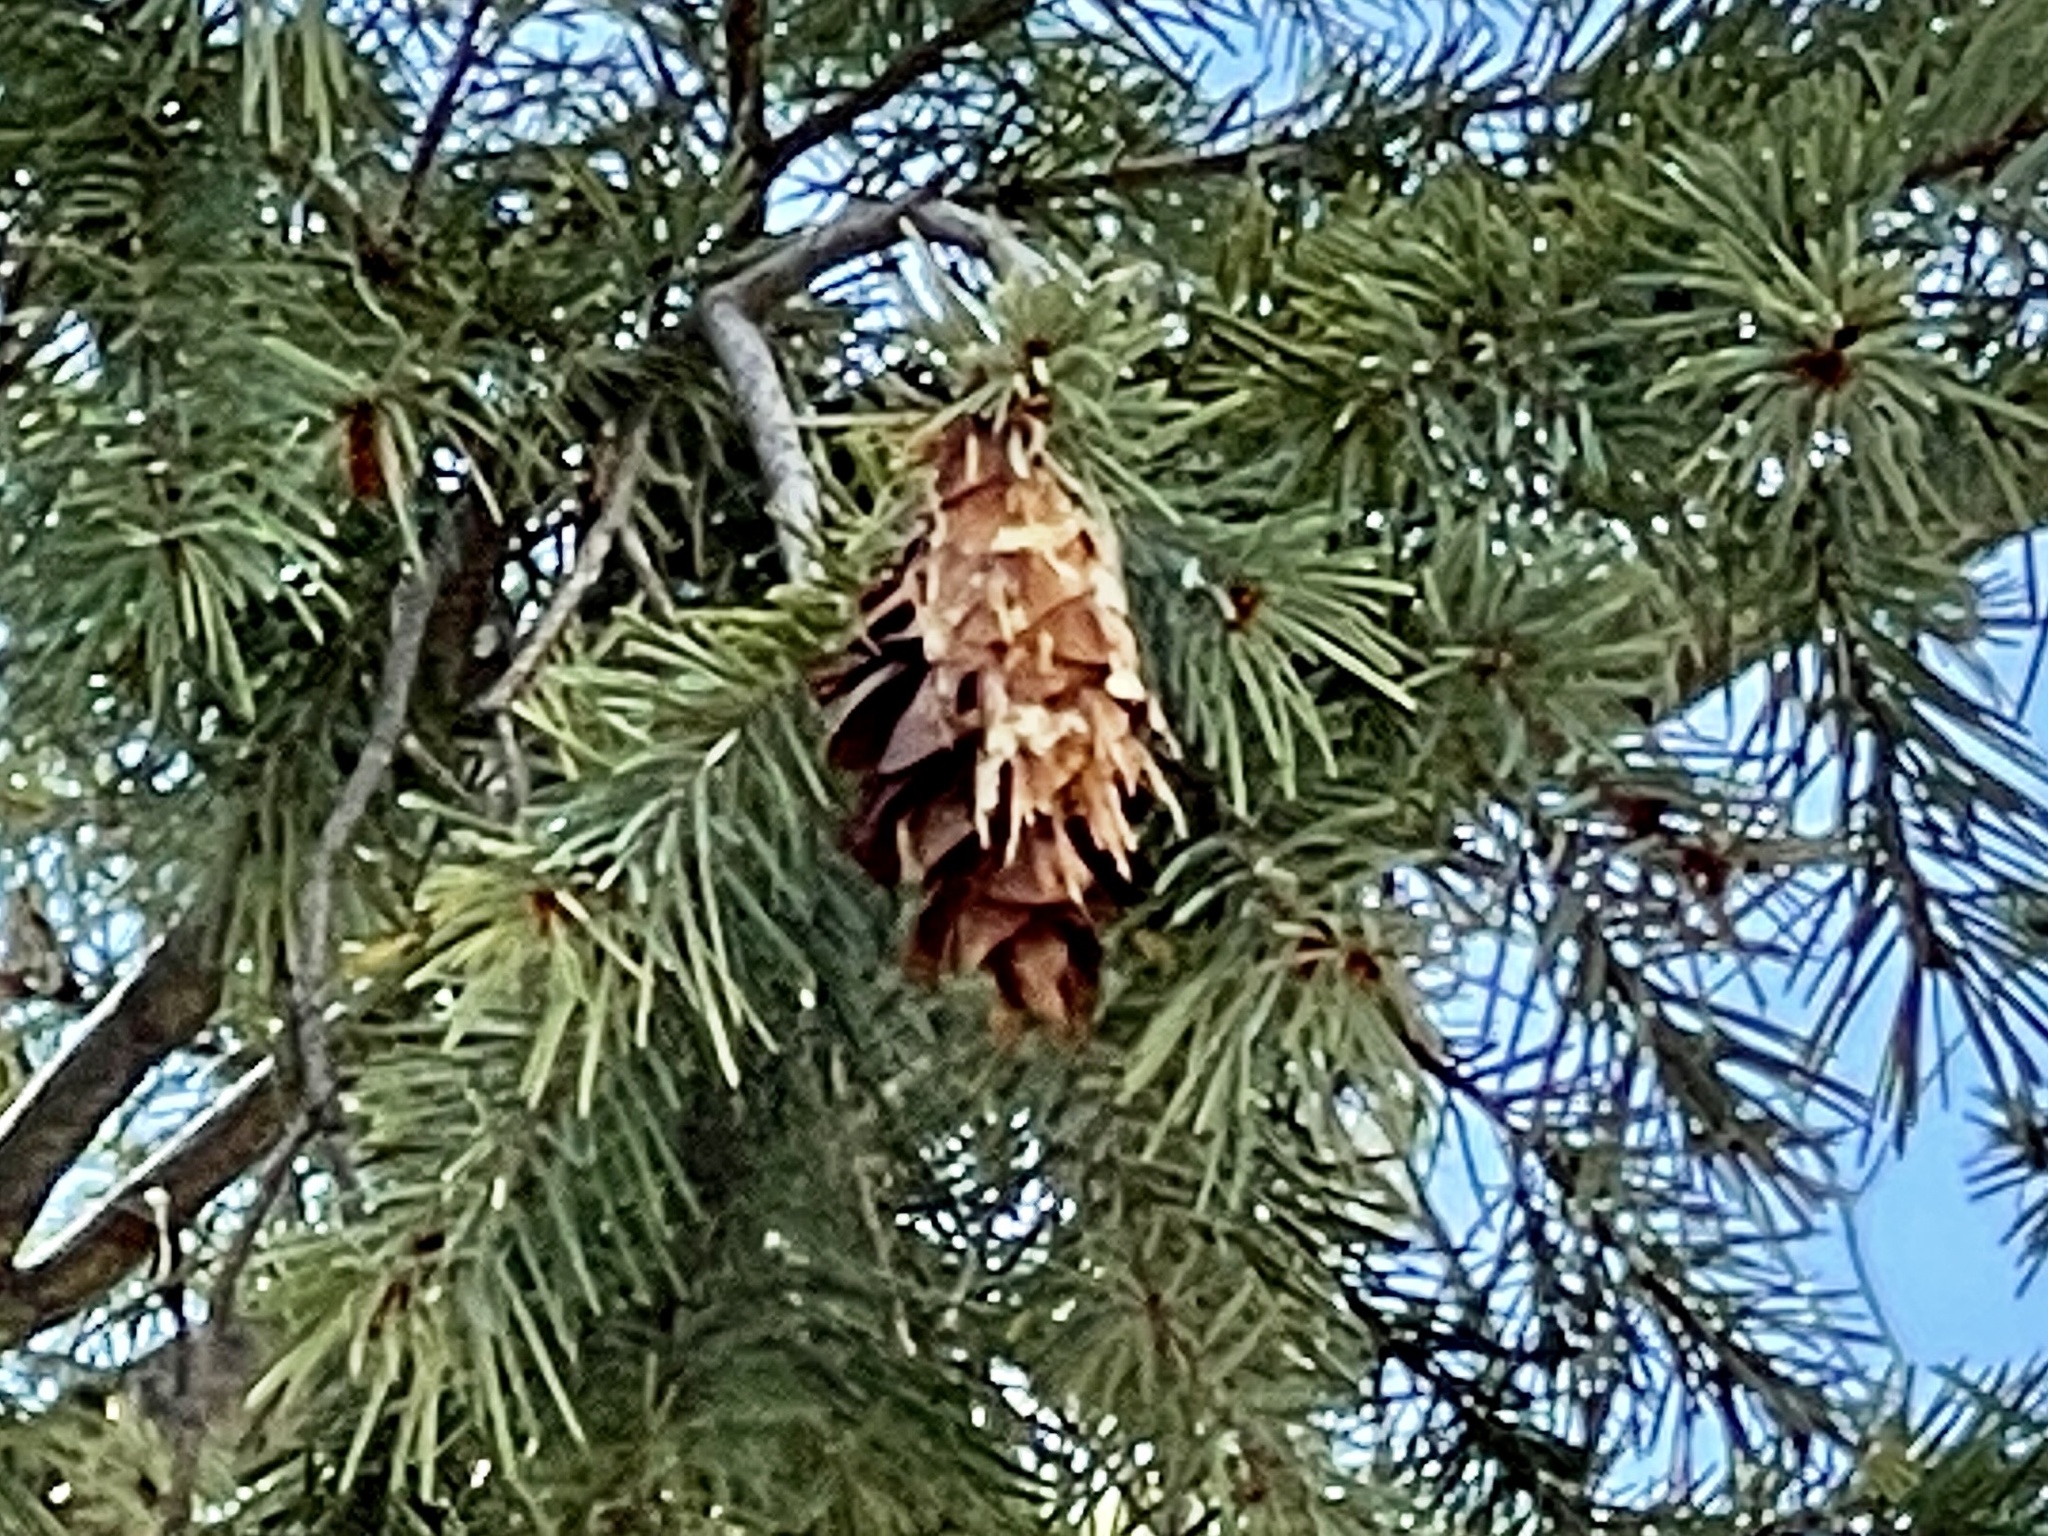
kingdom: Plantae
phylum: Tracheophyta
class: Pinopsida
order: Pinales
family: Pinaceae
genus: Pseudotsuga
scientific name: Pseudotsuga menziesii
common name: Douglas fir
